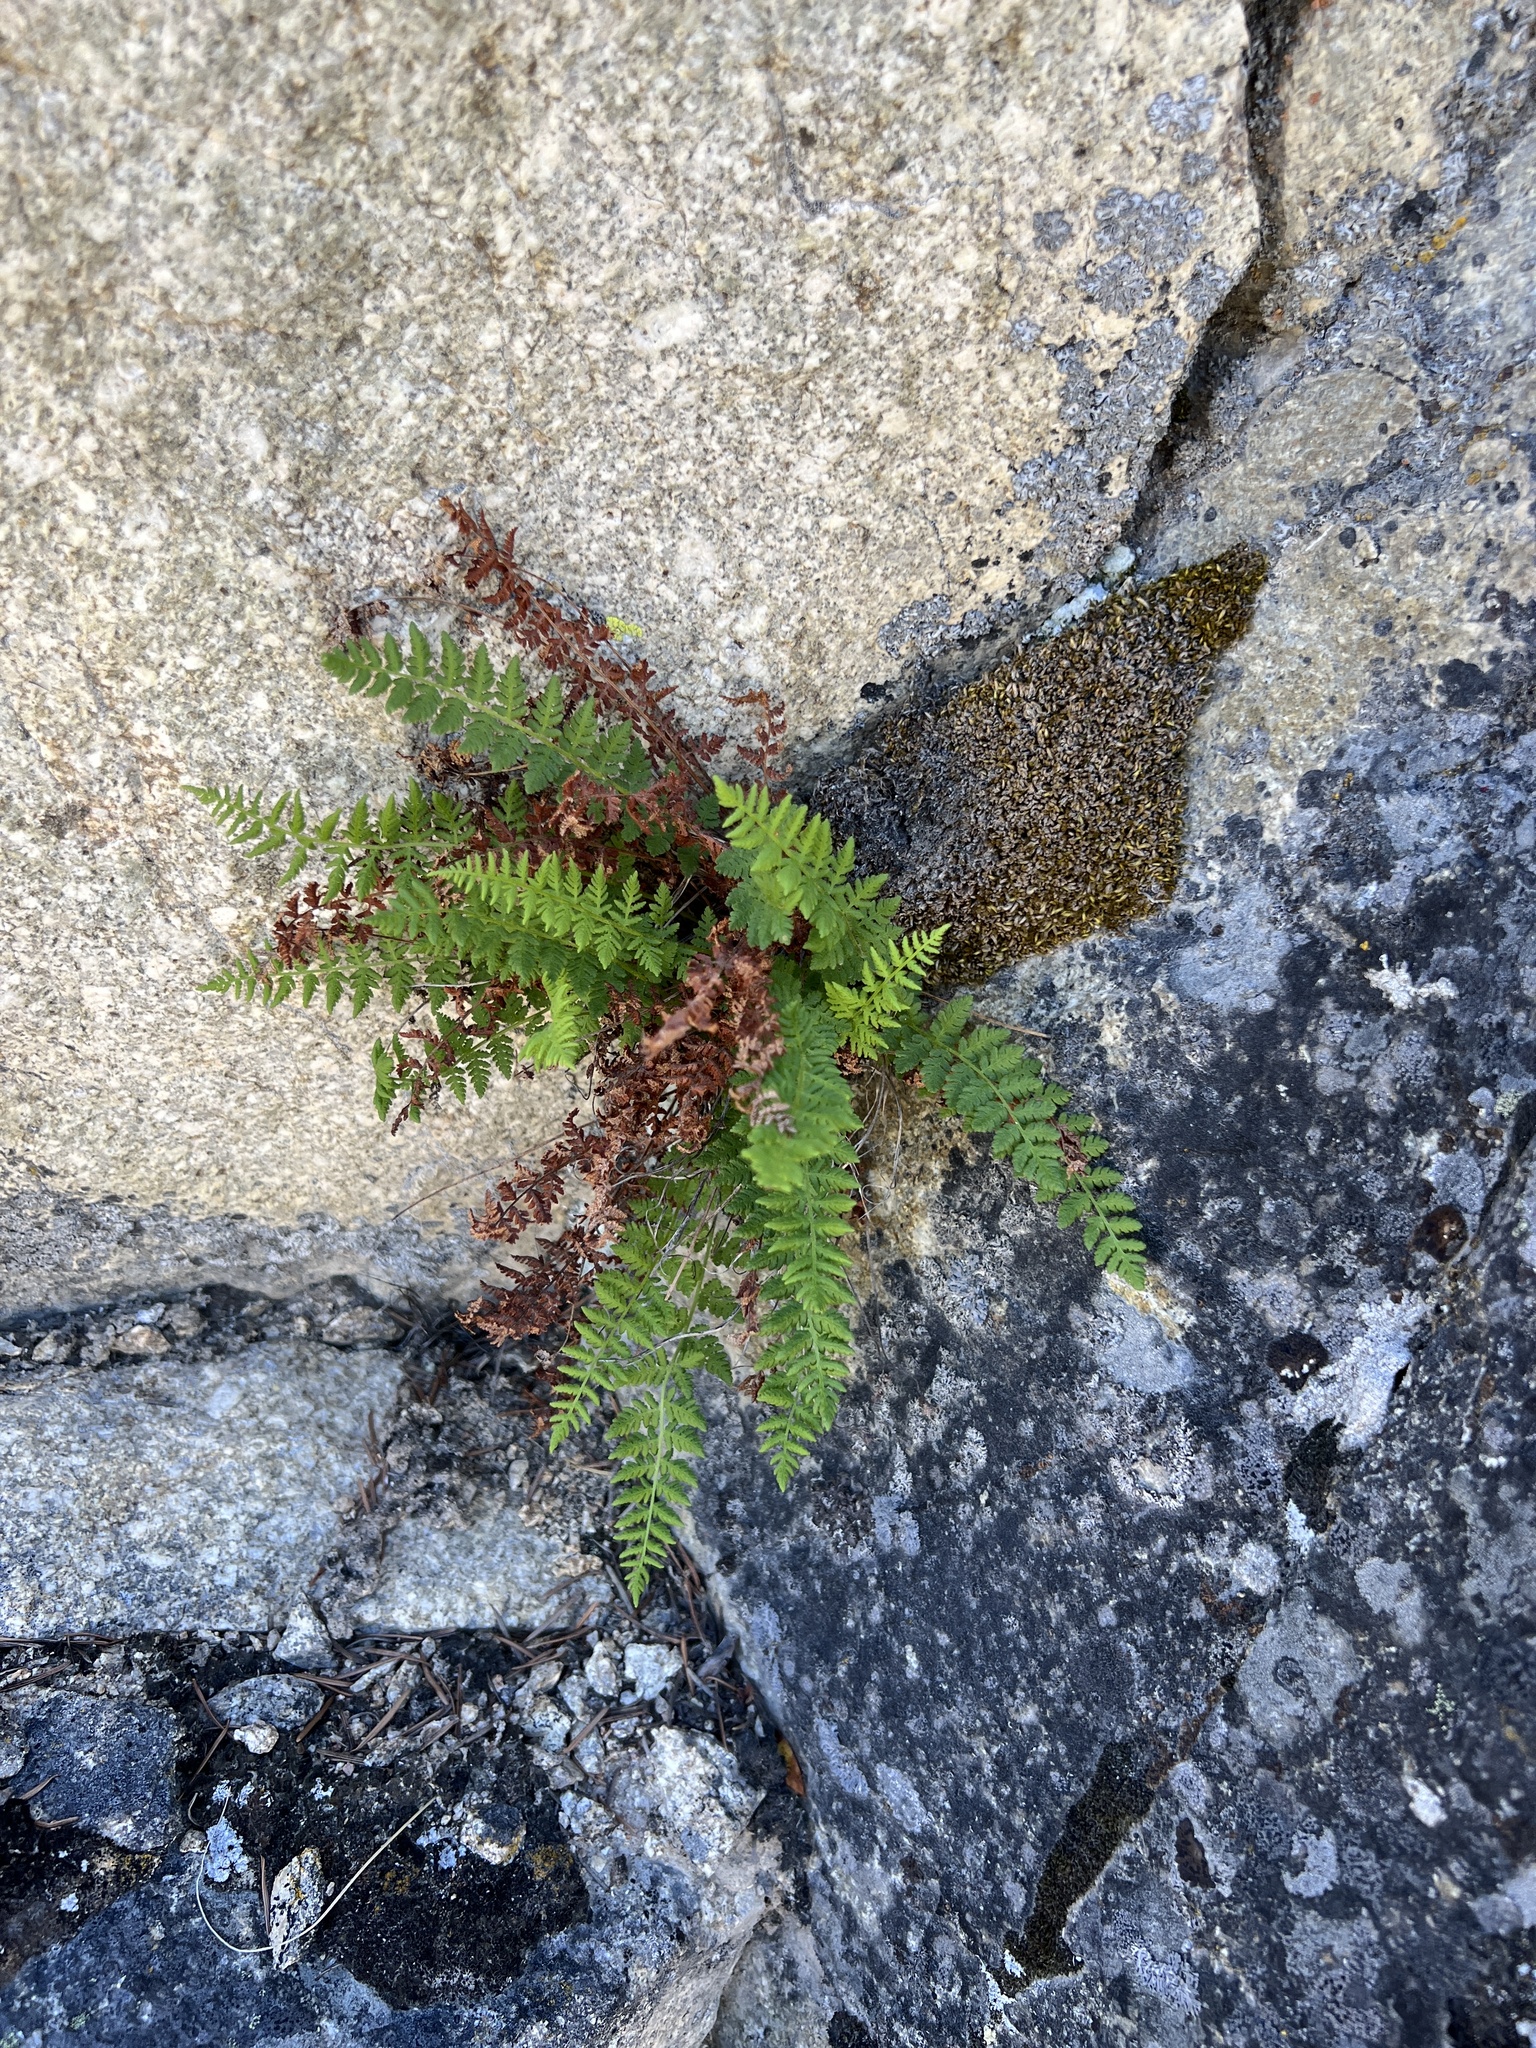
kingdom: Plantae
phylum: Tracheophyta
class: Polypodiopsida
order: Polypodiales
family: Woodsiaceae
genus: Physematium
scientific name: Physematium scopulinum
